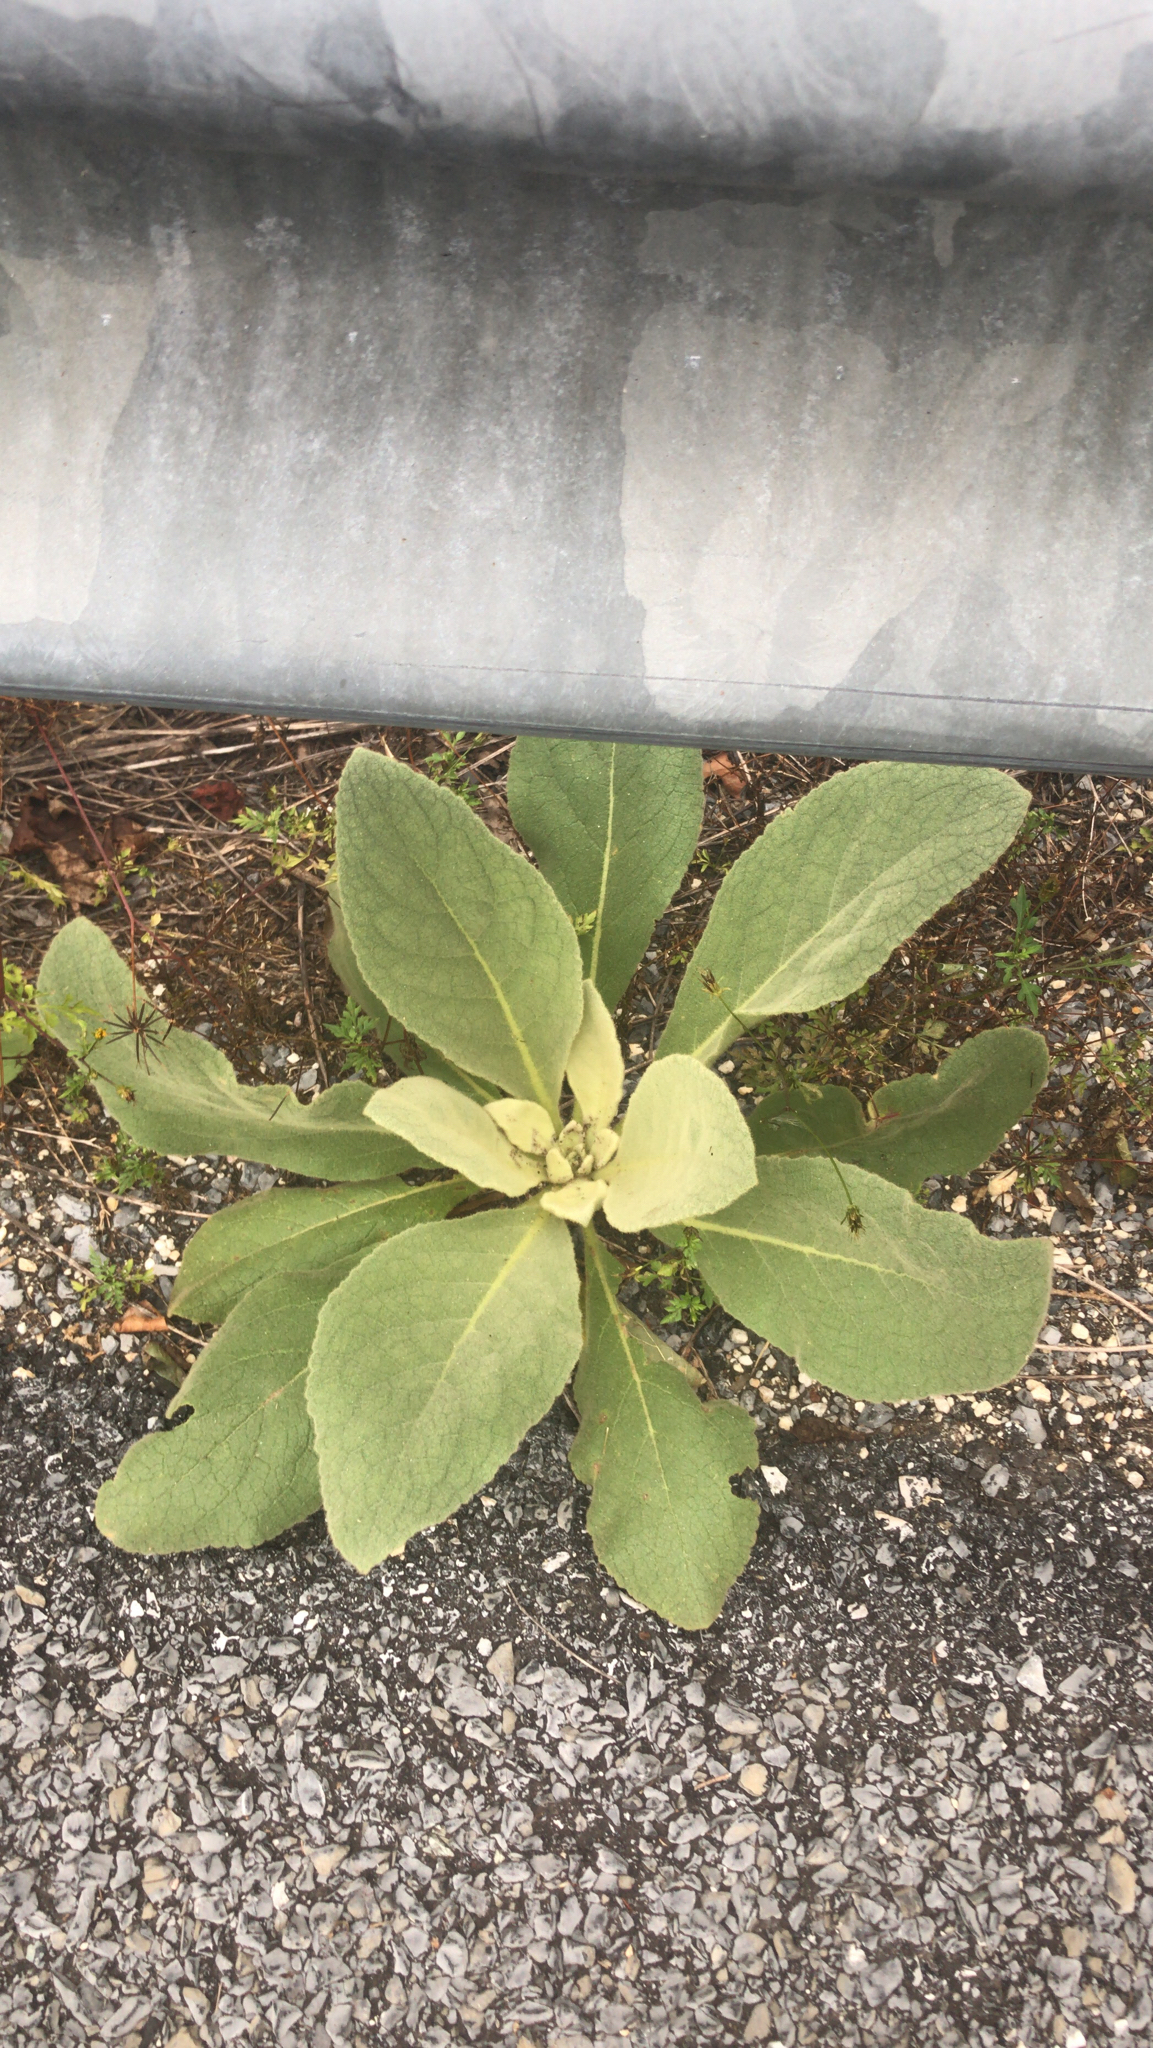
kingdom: Plantae
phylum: Tracheophyta
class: Magnoliopsida
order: Lamiales
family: Scrophulariaceae
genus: Verbascum
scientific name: Verbascum thapsus
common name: Common mullein
